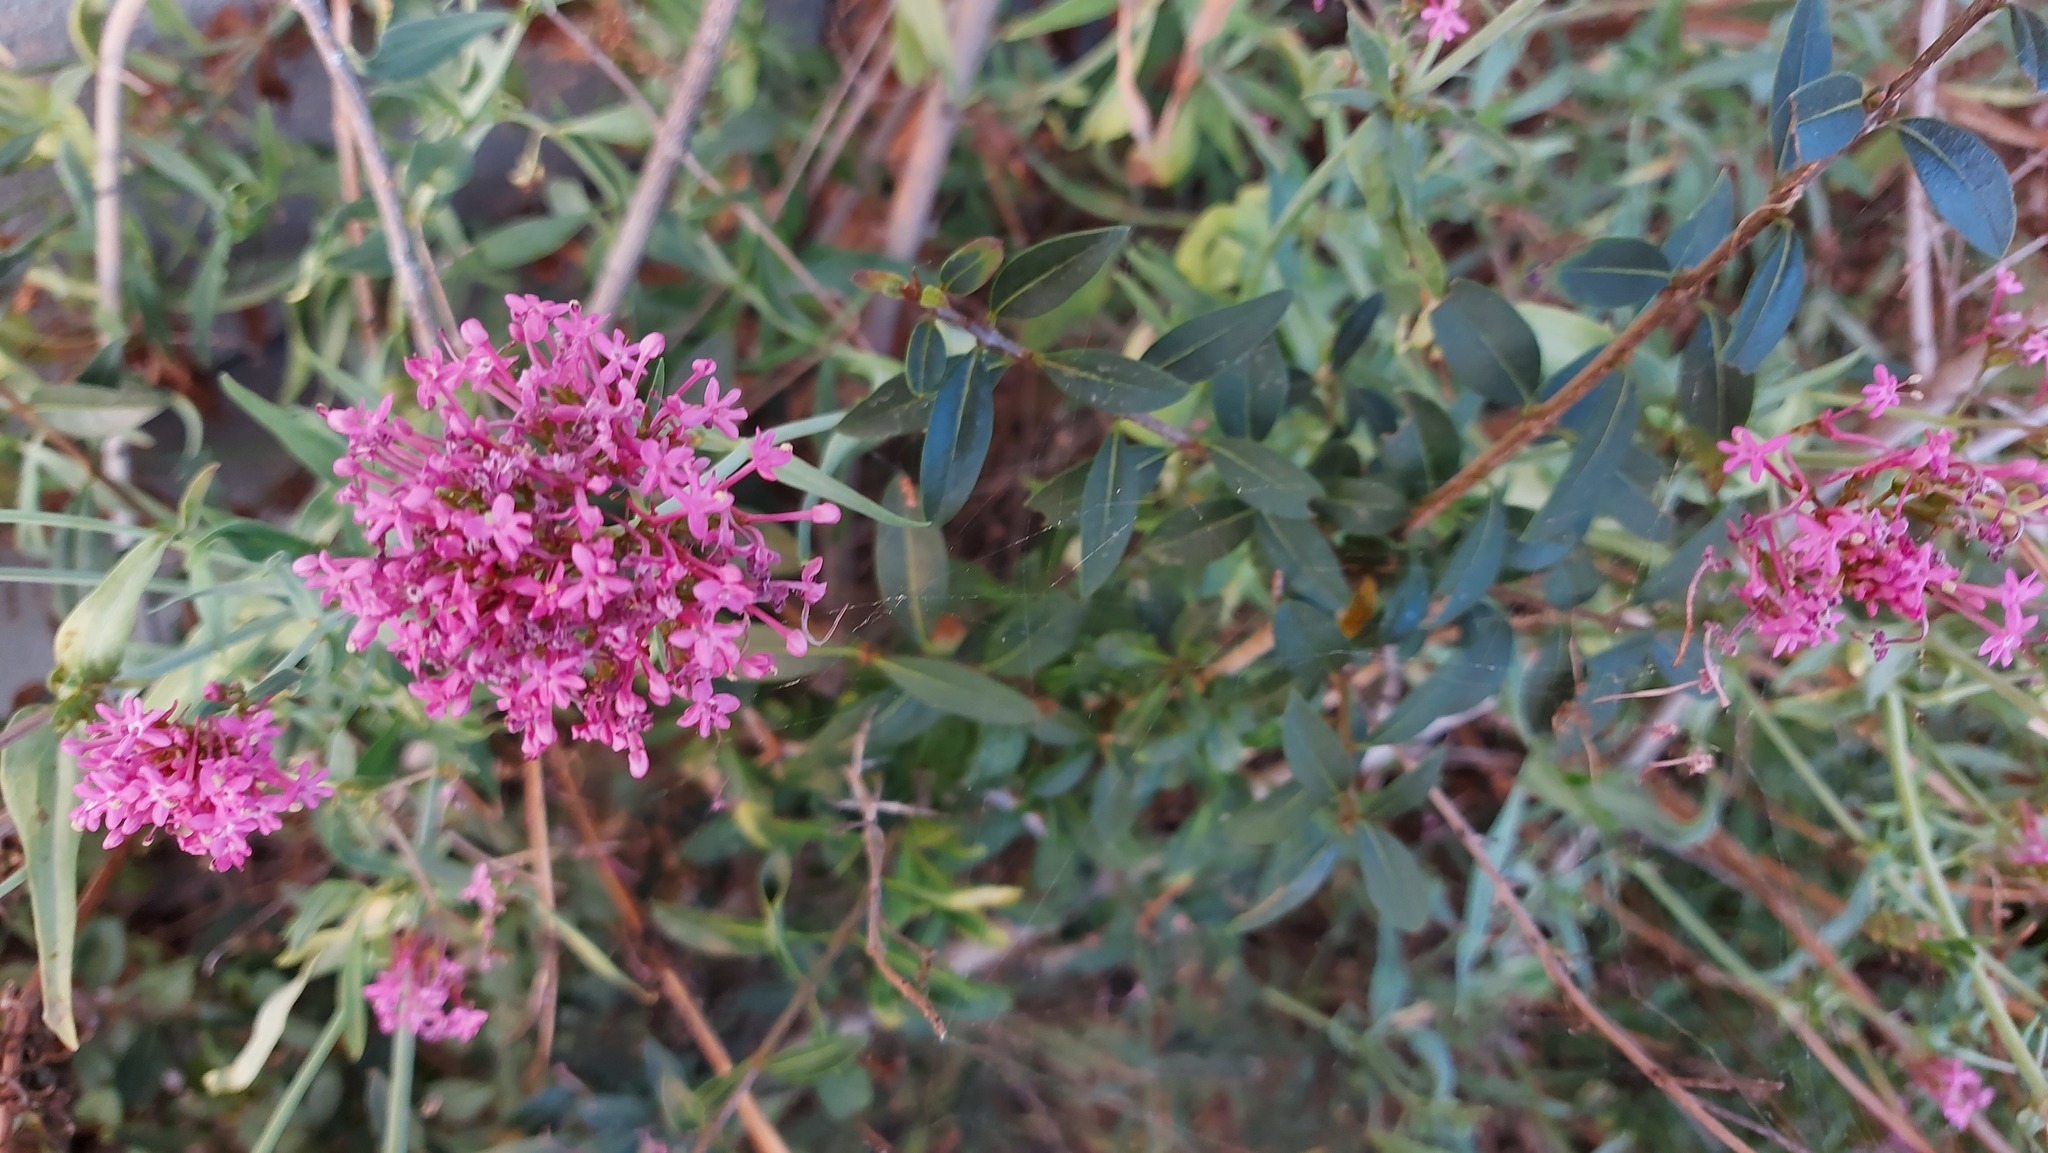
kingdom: Plantae
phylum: Tracheophyta
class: Magnoliopsida
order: Dipsacales
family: Caprifoliaceae
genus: Centranthus
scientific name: Centranthus ruber
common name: Red valerian
